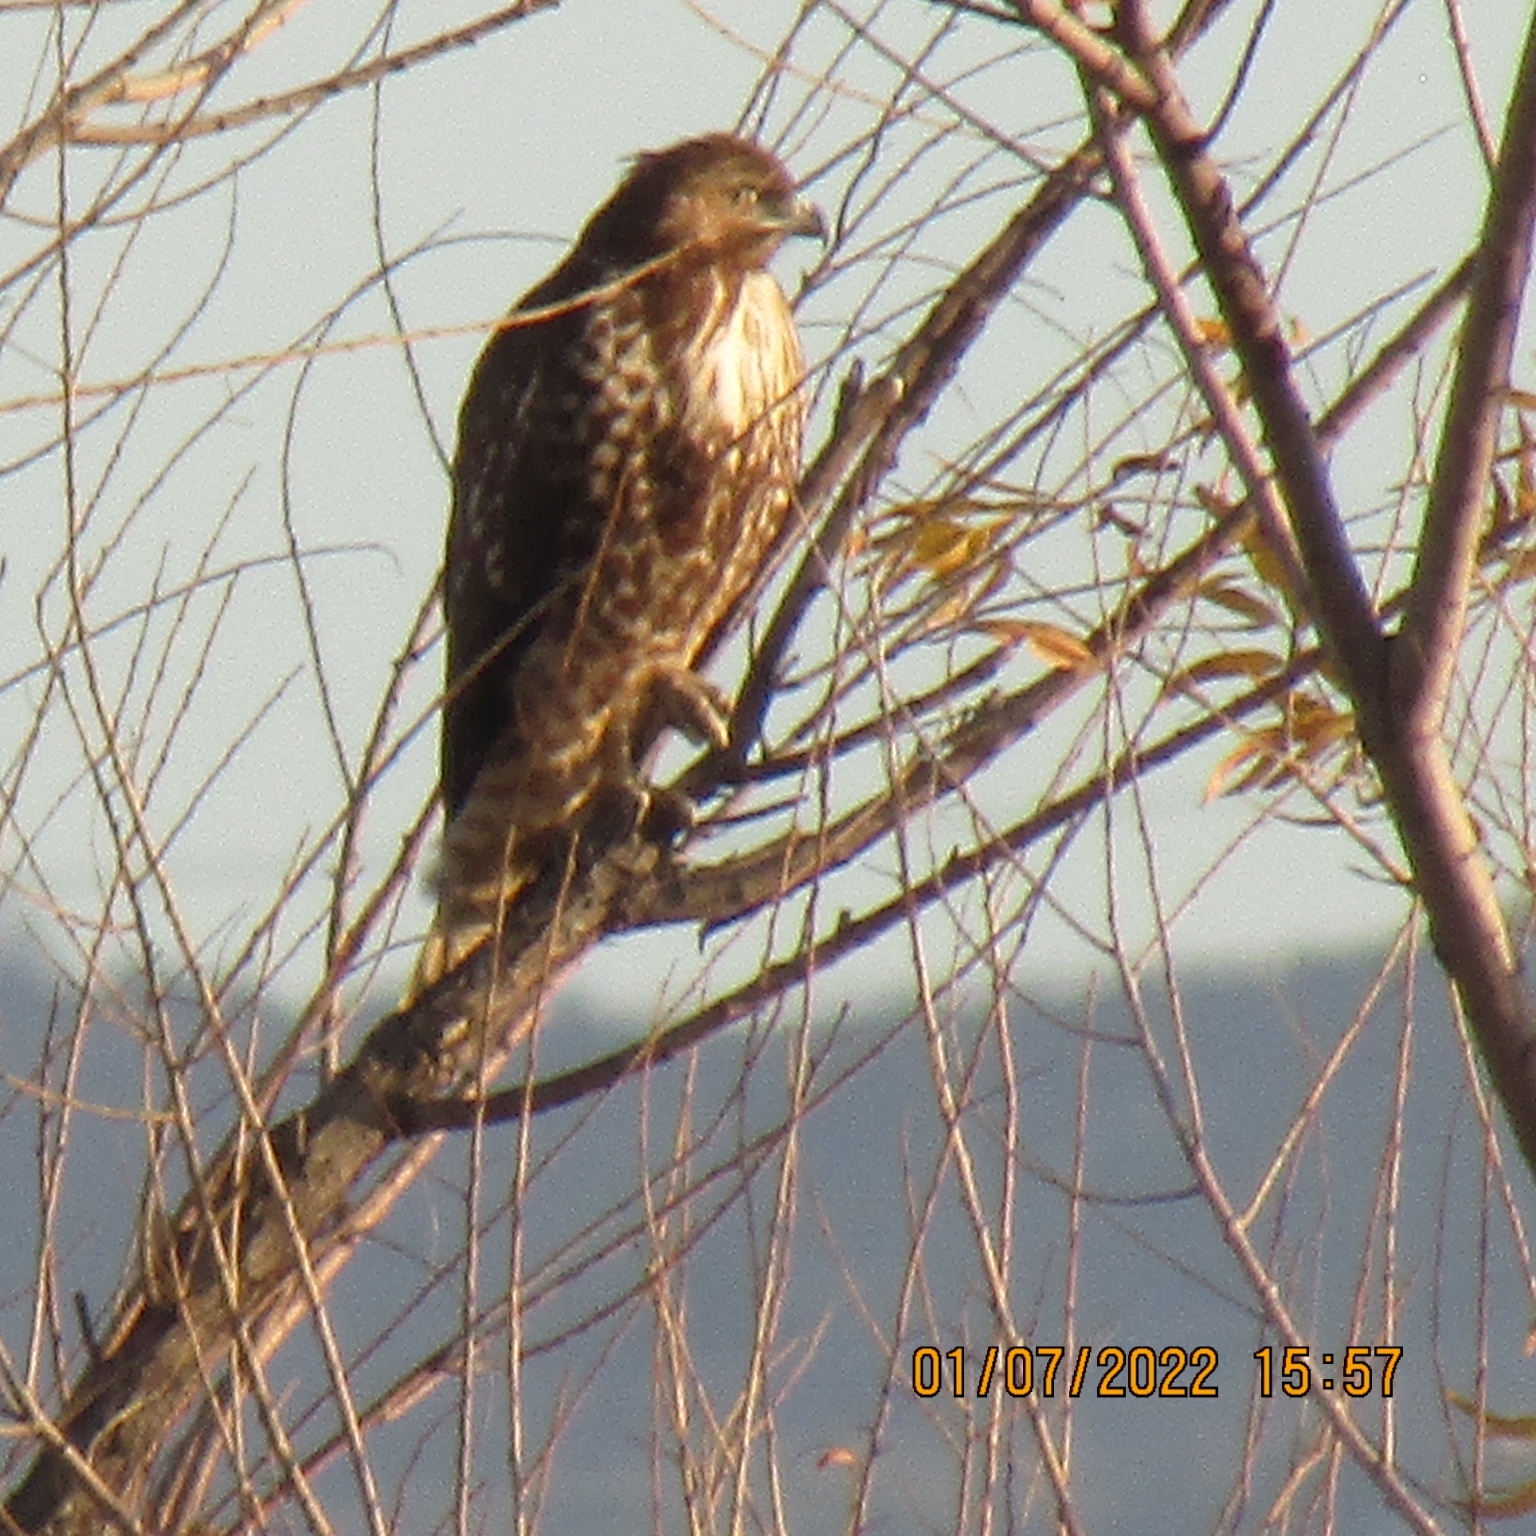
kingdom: Animalia
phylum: Chordata
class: Aves
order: Accipitriformes
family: Accipitridae
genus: Buteo
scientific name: Buteo jamaicensis
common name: Red-tailed hawk
